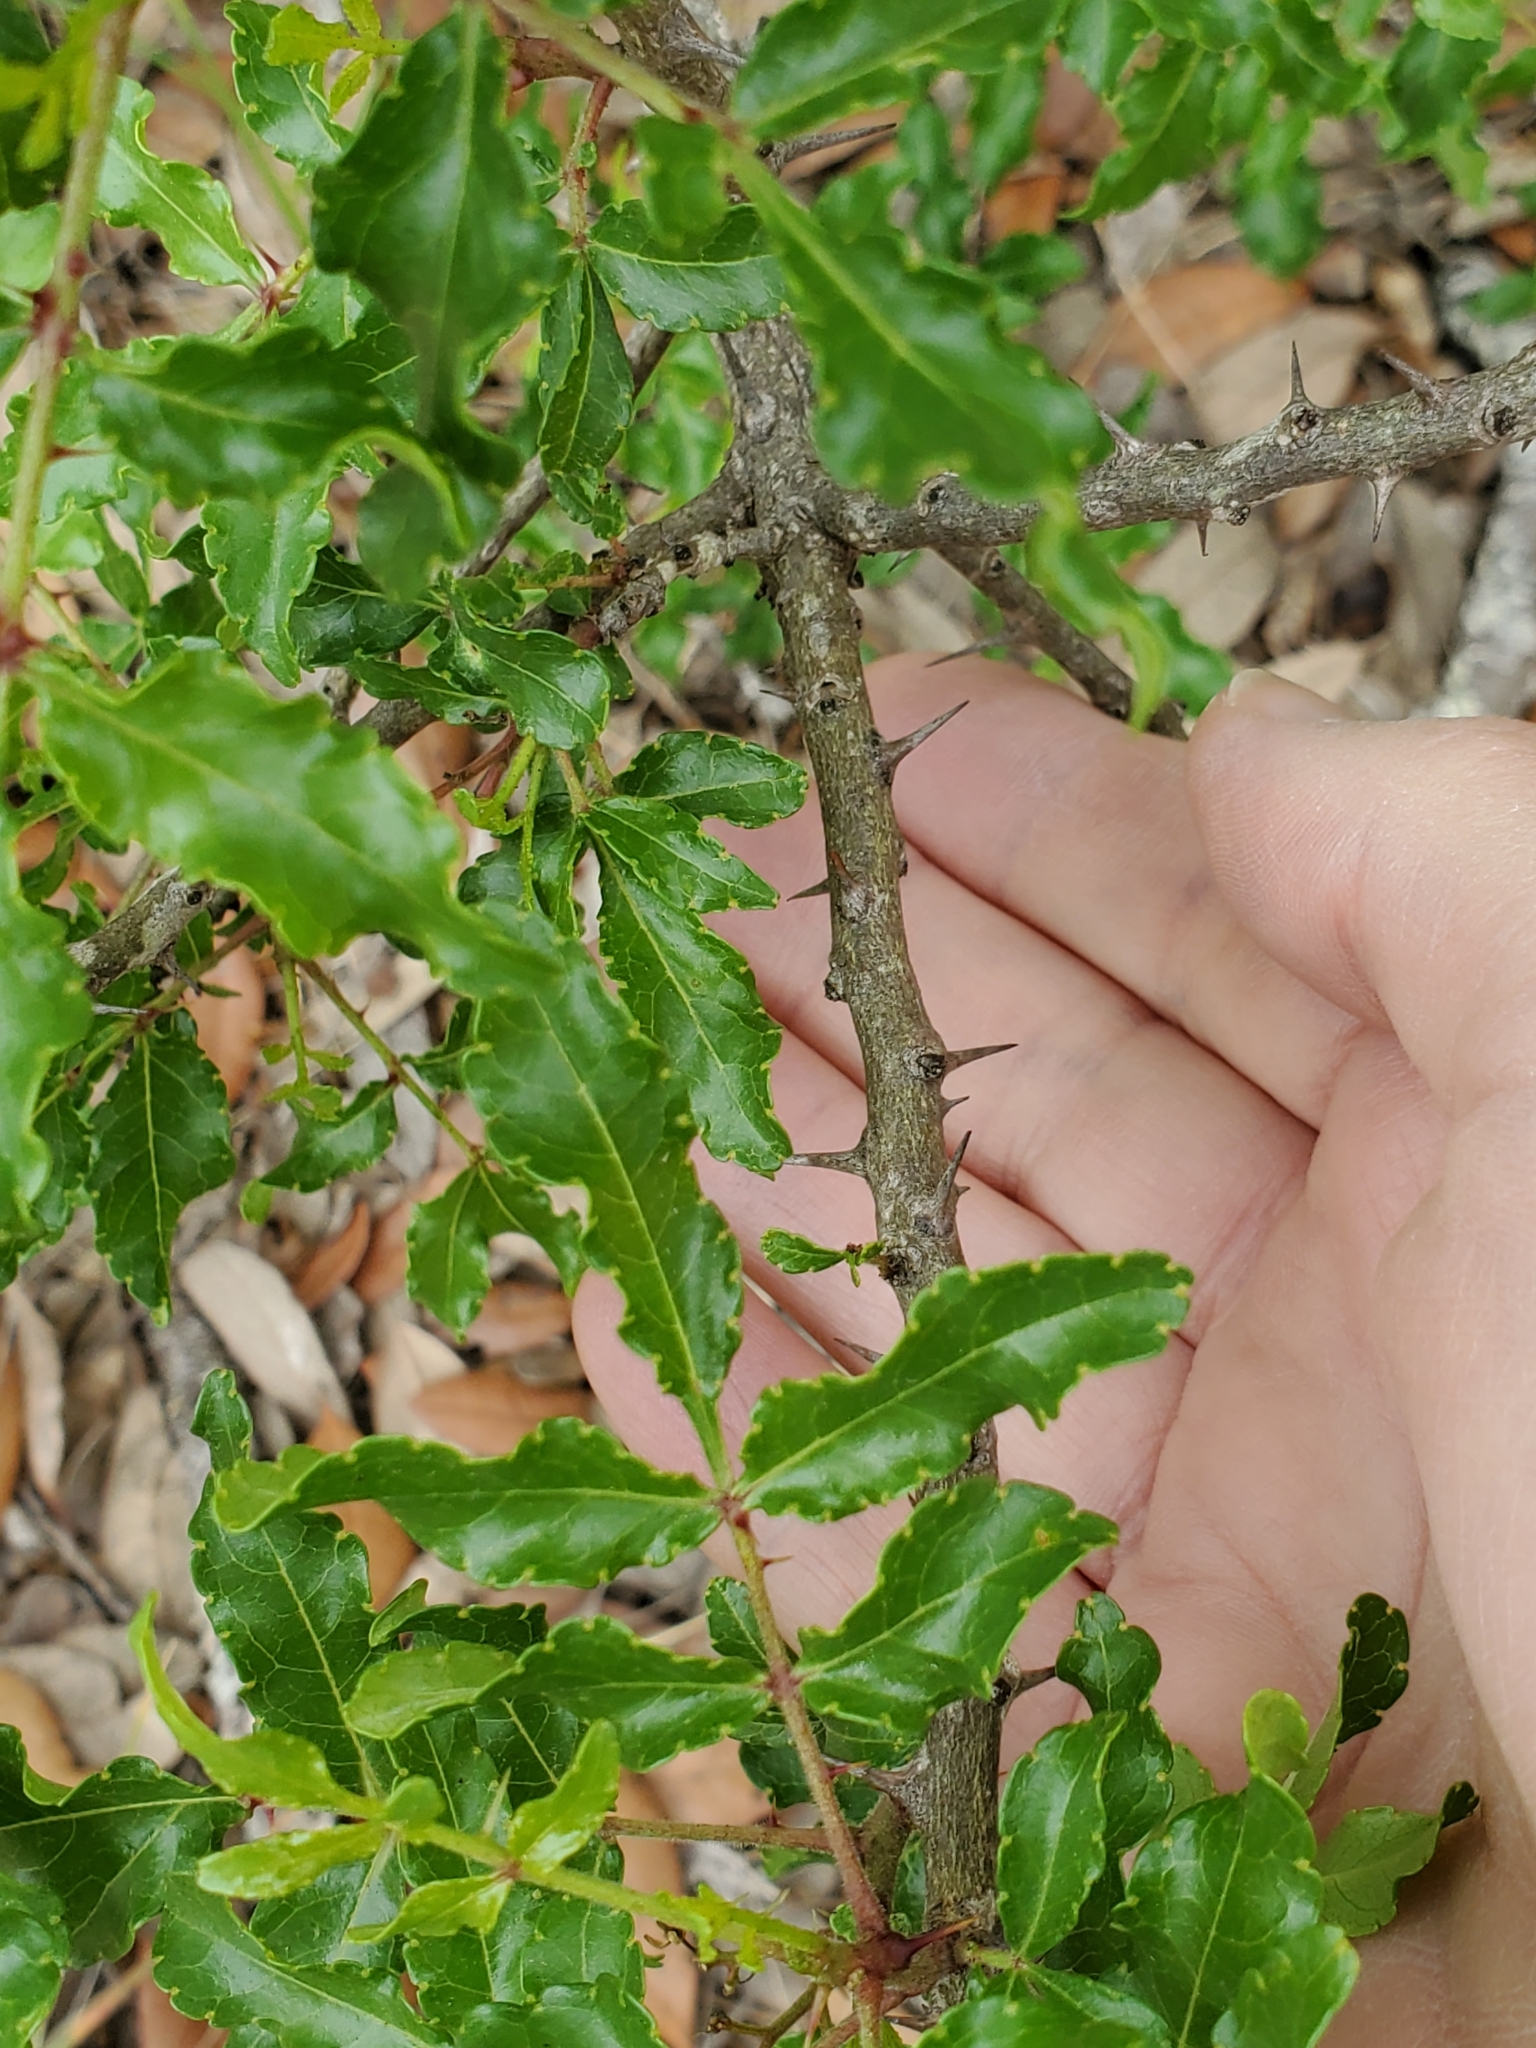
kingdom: Plantae
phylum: Tracheophyta
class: Magnoliopsida
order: Sapindales
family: Rutaceae
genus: Zanthoxylum
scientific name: Zanthoxylum clava-herculis
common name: Hercules'-club
